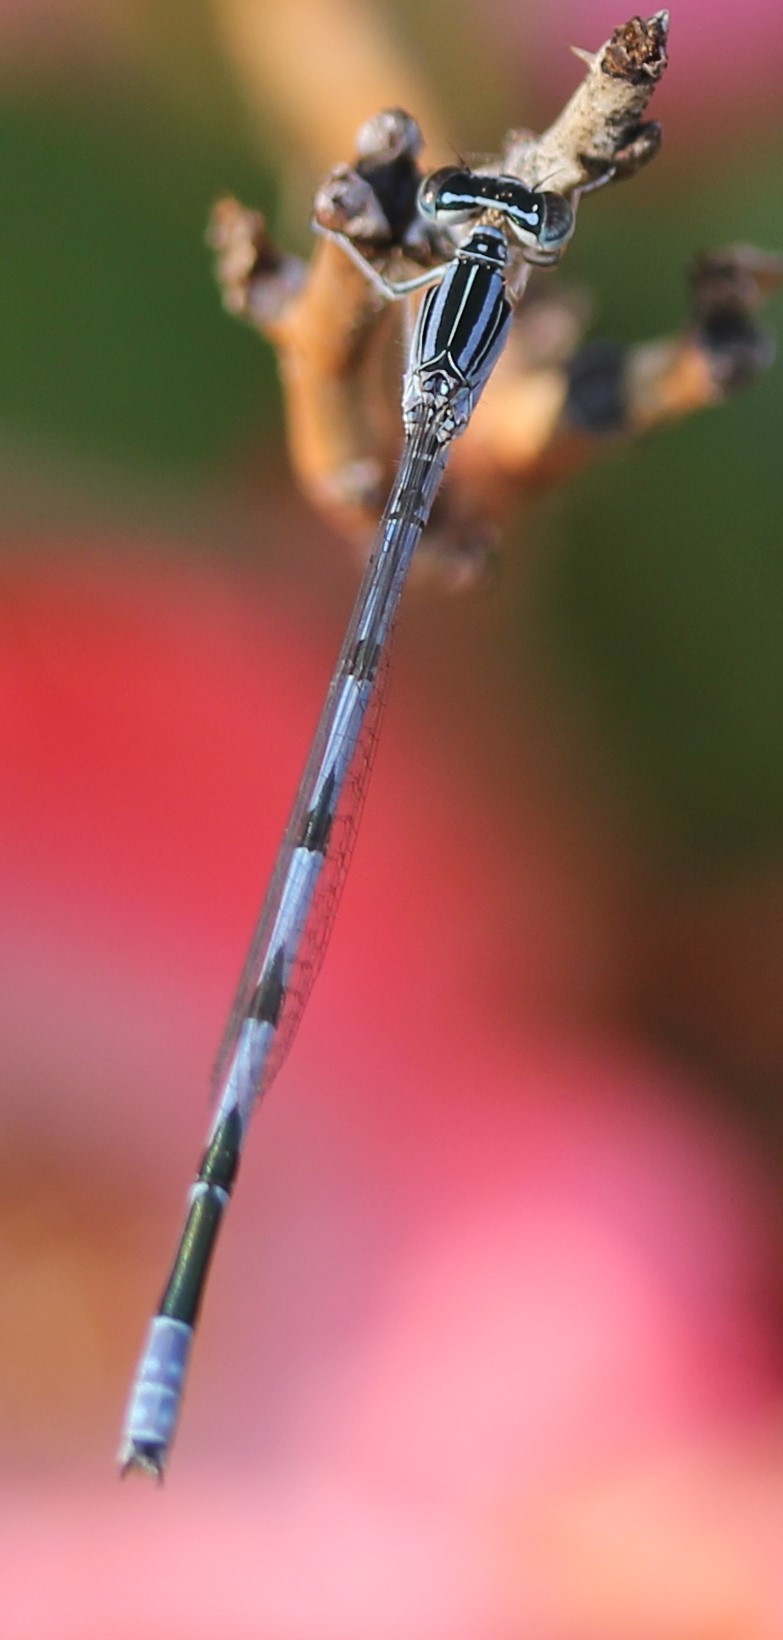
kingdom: Animalia
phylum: Arthropoda
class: Insecta
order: Odonata
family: Coenagrionidae
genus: Enallagma
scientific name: Enallagma basidens
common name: Double-striped bluet
